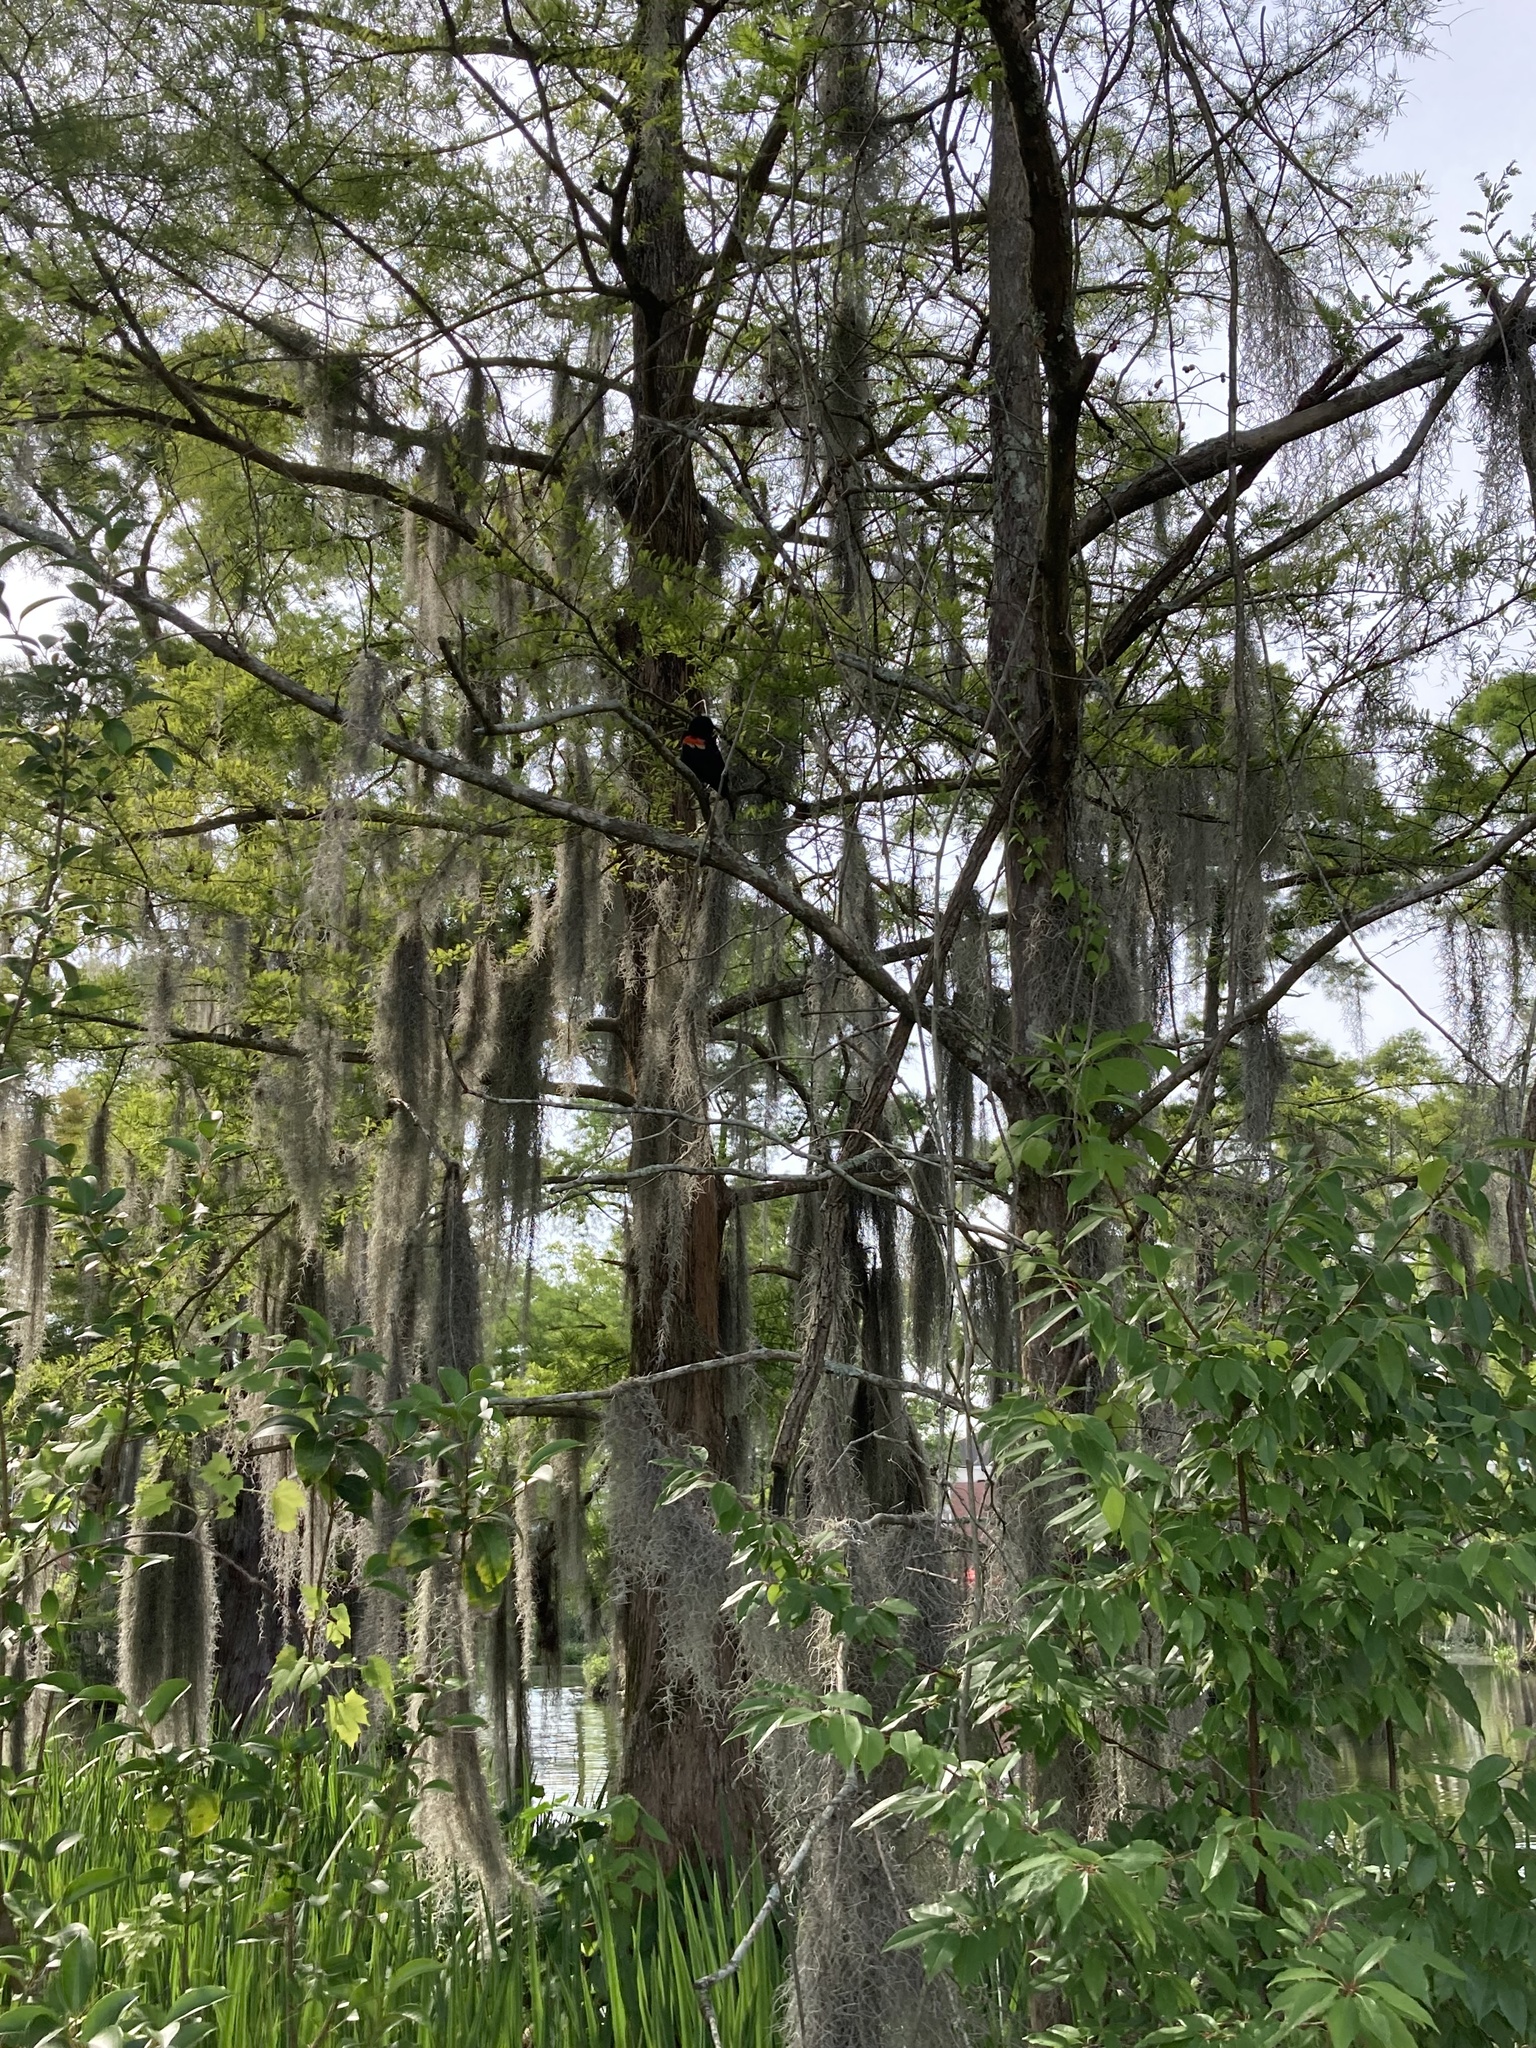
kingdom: Animalia
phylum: Chordata
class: Aves
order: Passeriformes
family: Icteridae
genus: Agelaius
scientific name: Agelaius phoeniceus
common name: Red-winged blackbird
